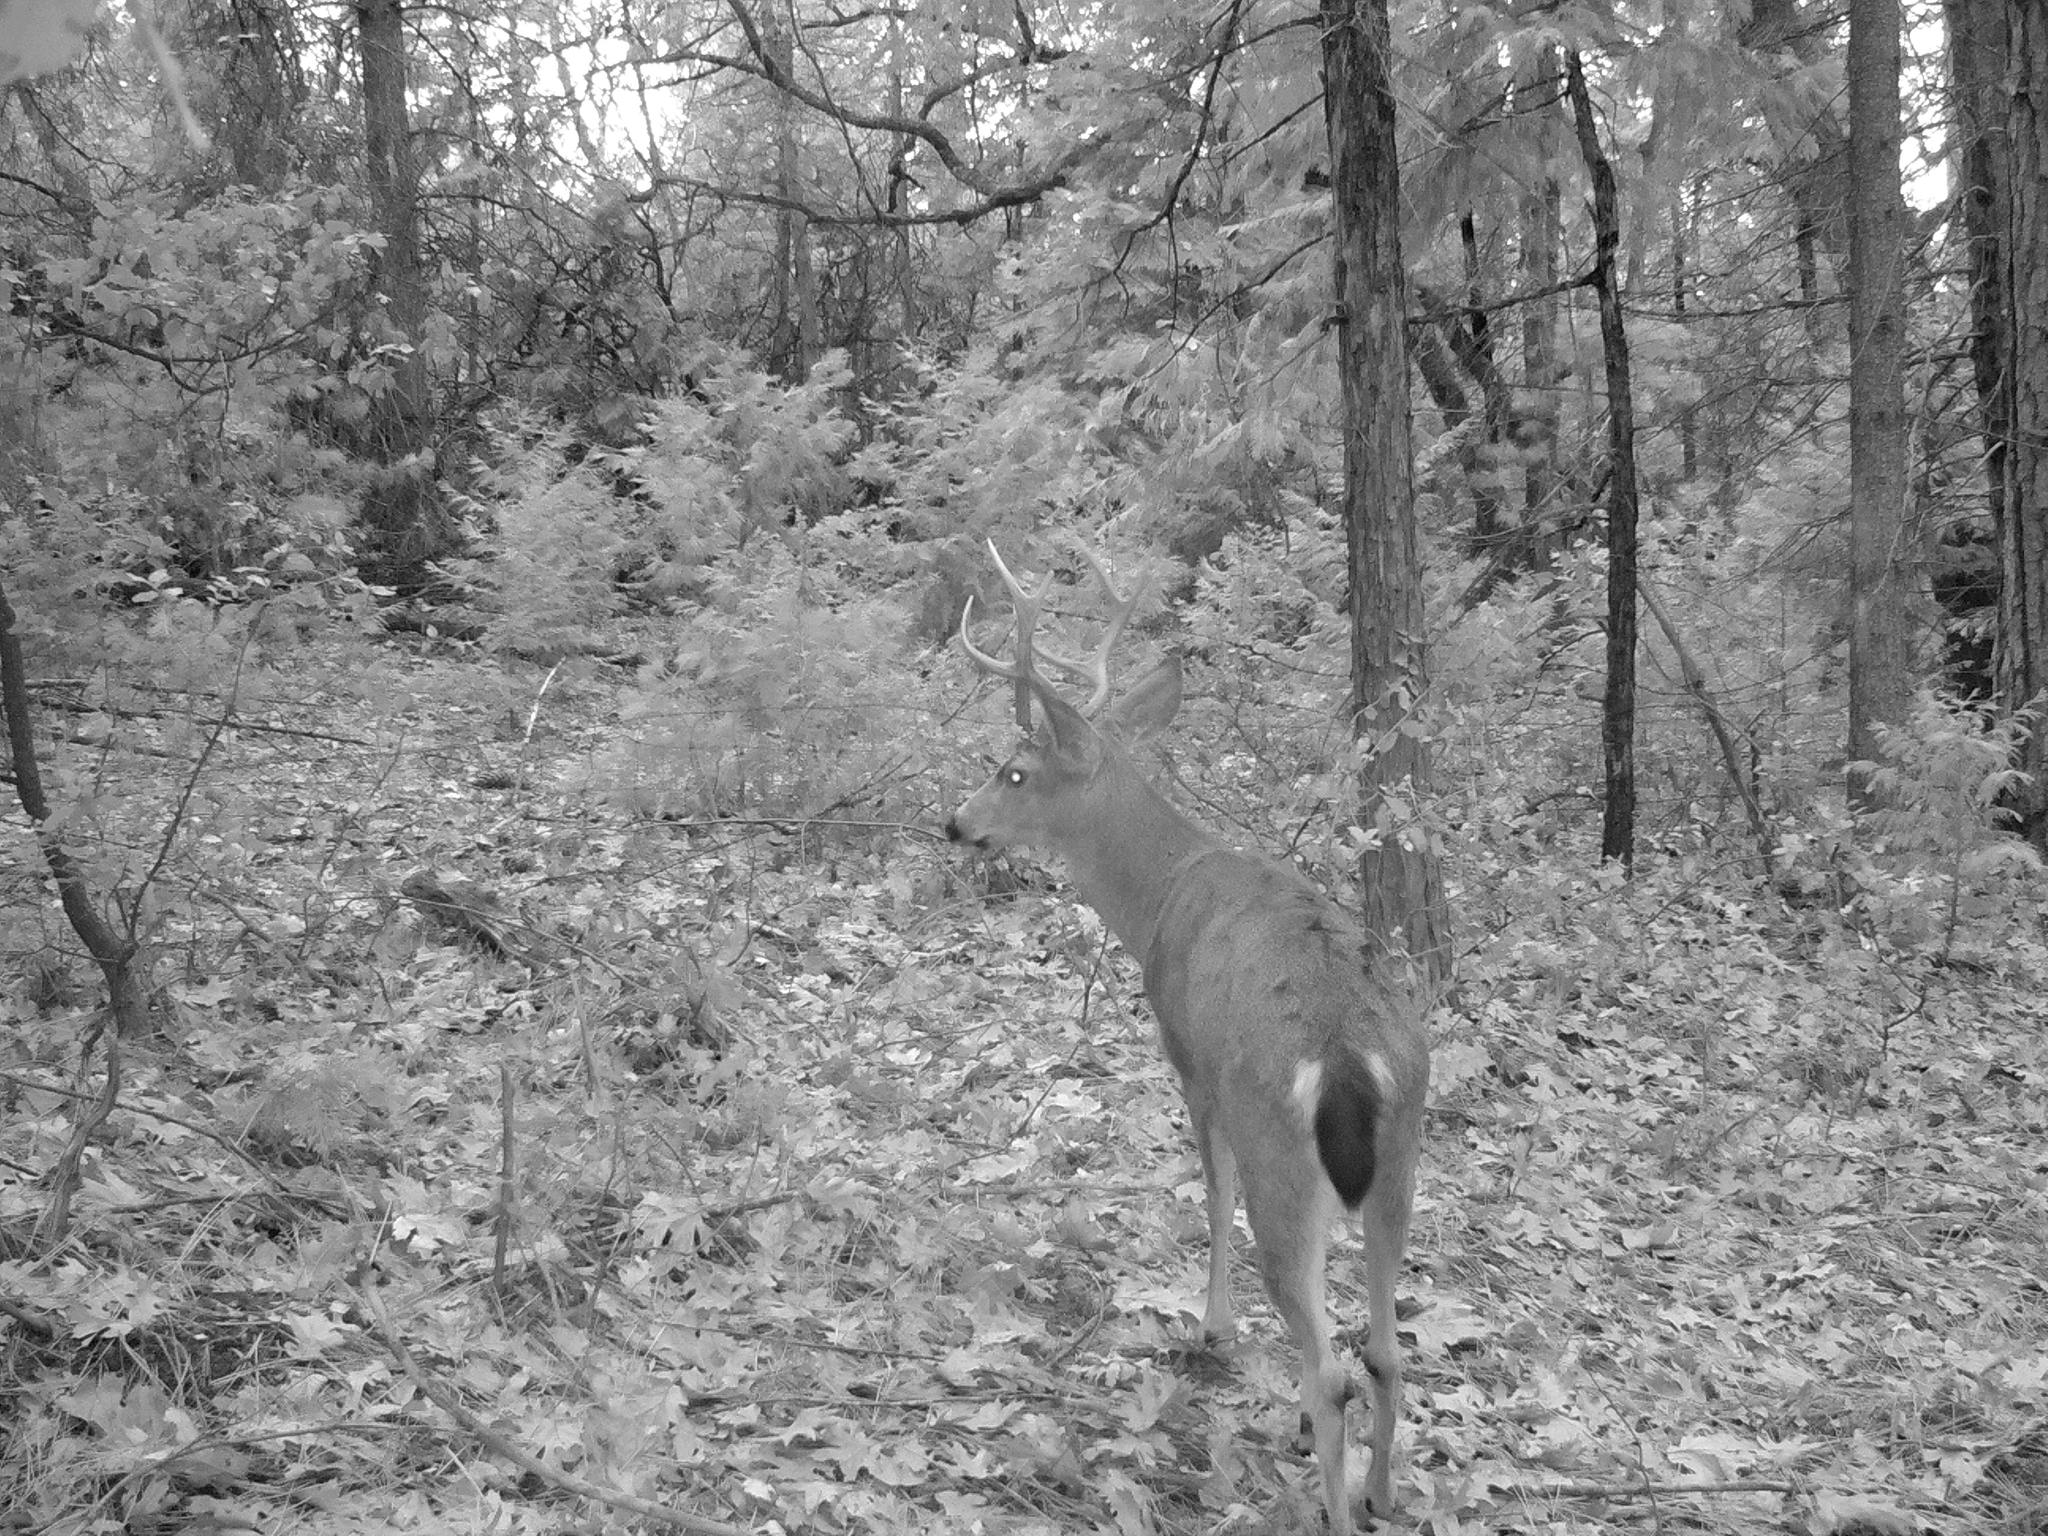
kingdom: Animalia
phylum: Chordata
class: Mammalia
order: Artiodactyla
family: Cervidae
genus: Odocoileus
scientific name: Odocoileus hemionus
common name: Mule deer
